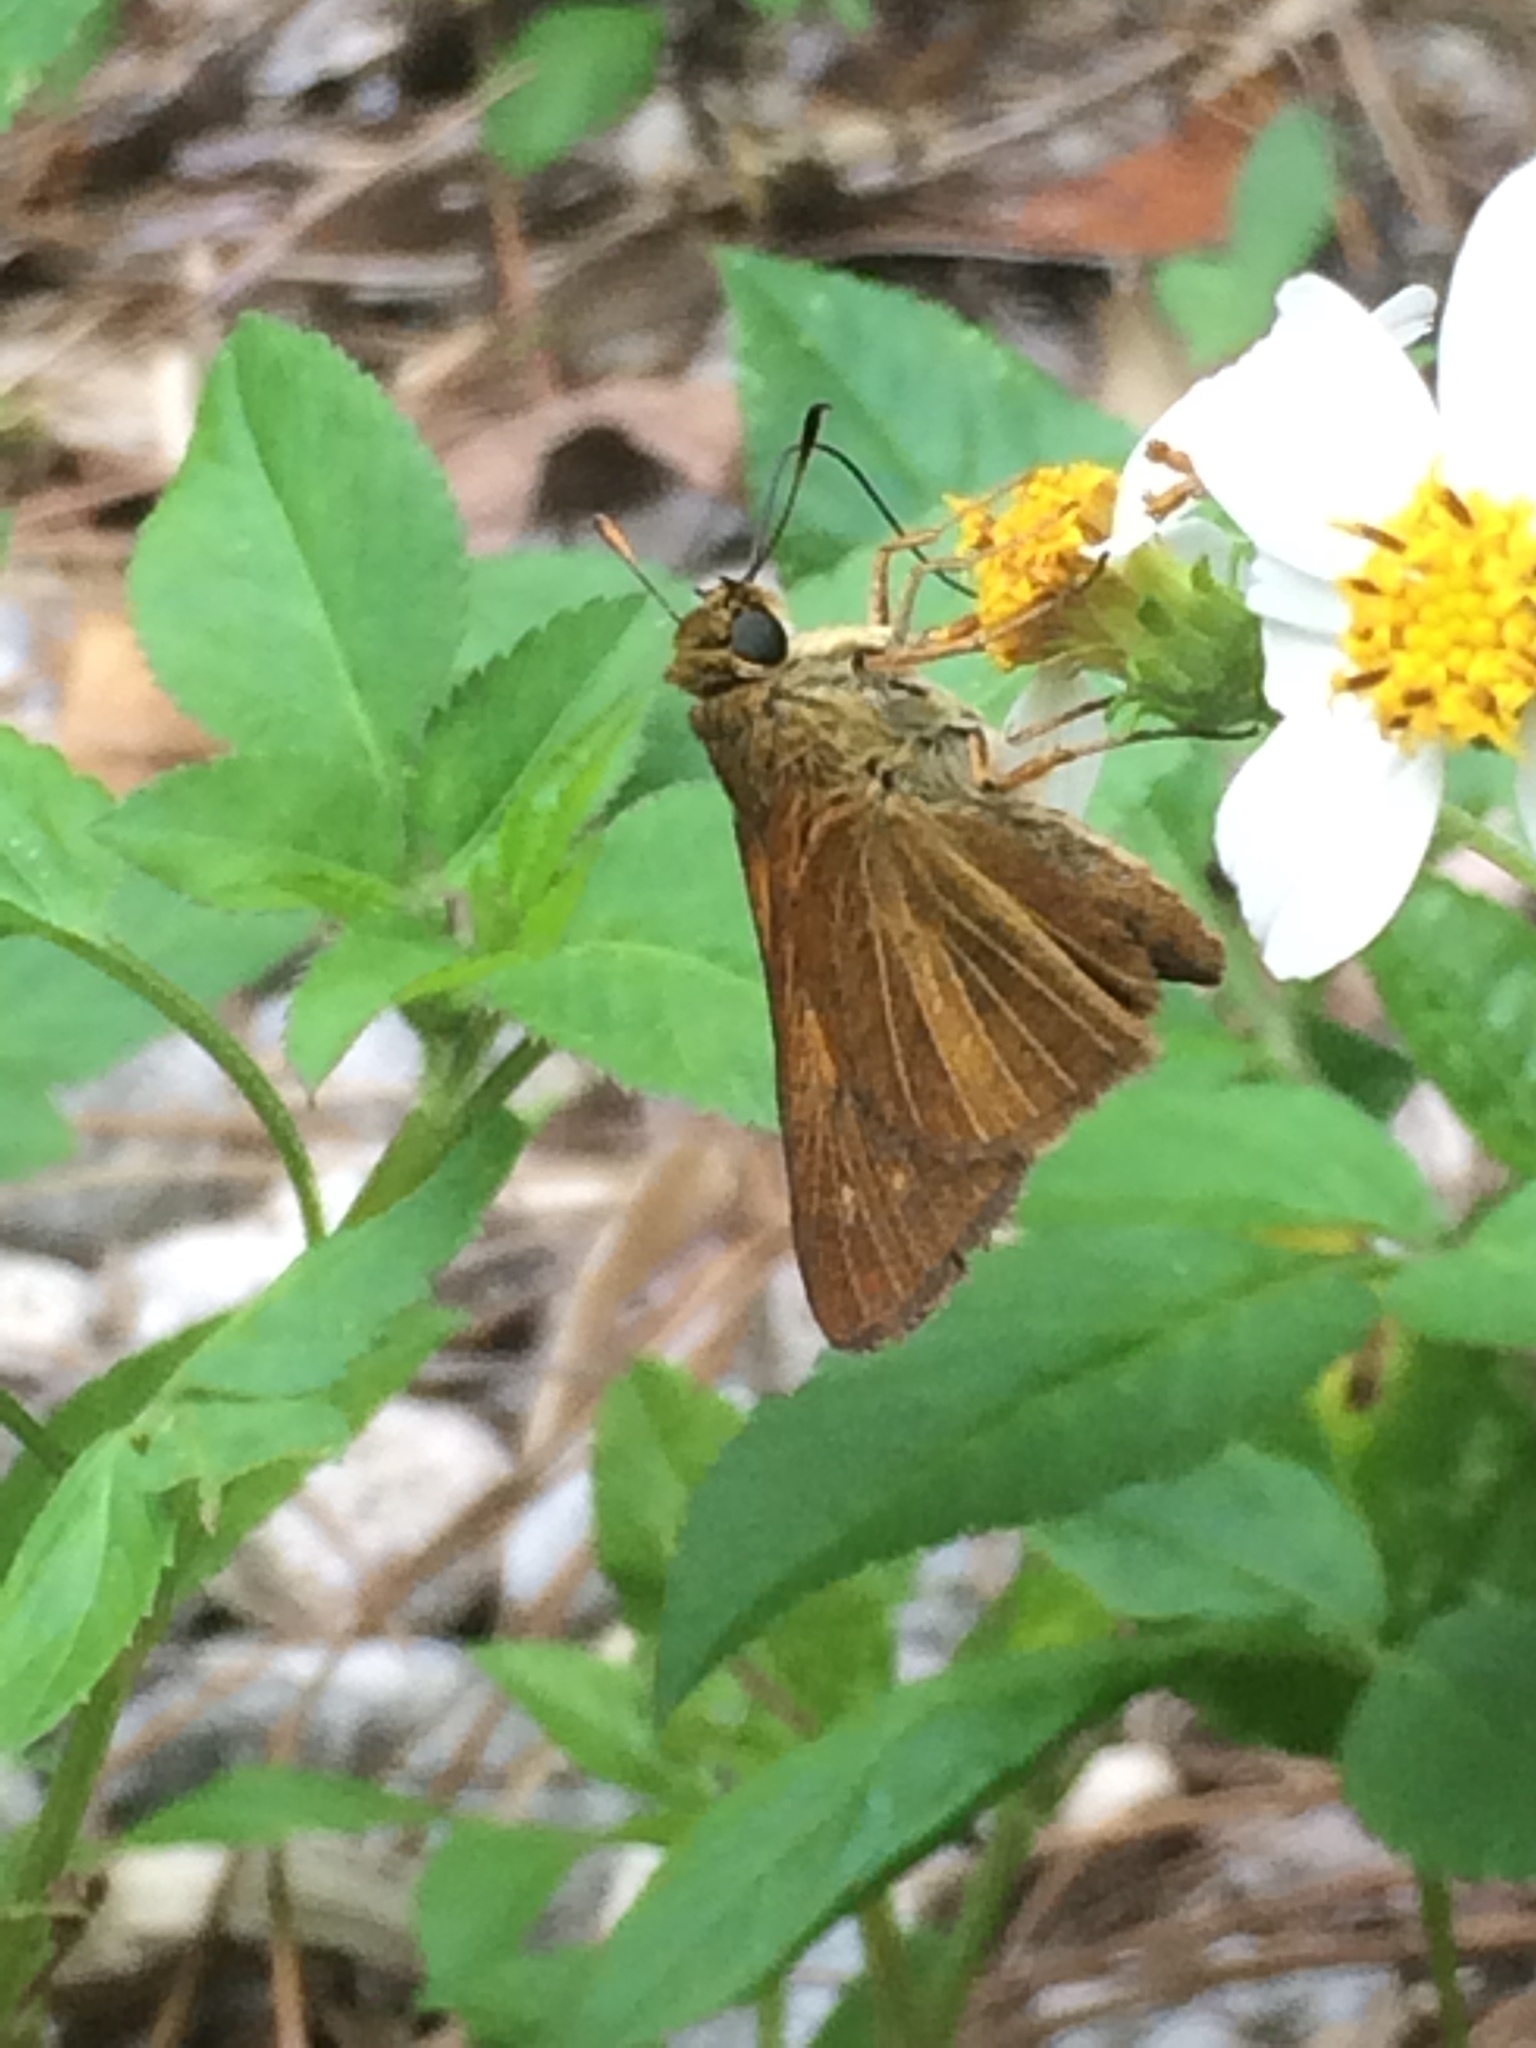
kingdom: Animalia
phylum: Arthropoda
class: Insecta
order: Lepidoptera
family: Hesperiidae
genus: Euphyes
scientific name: Euphyes dion
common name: Dion skipper
